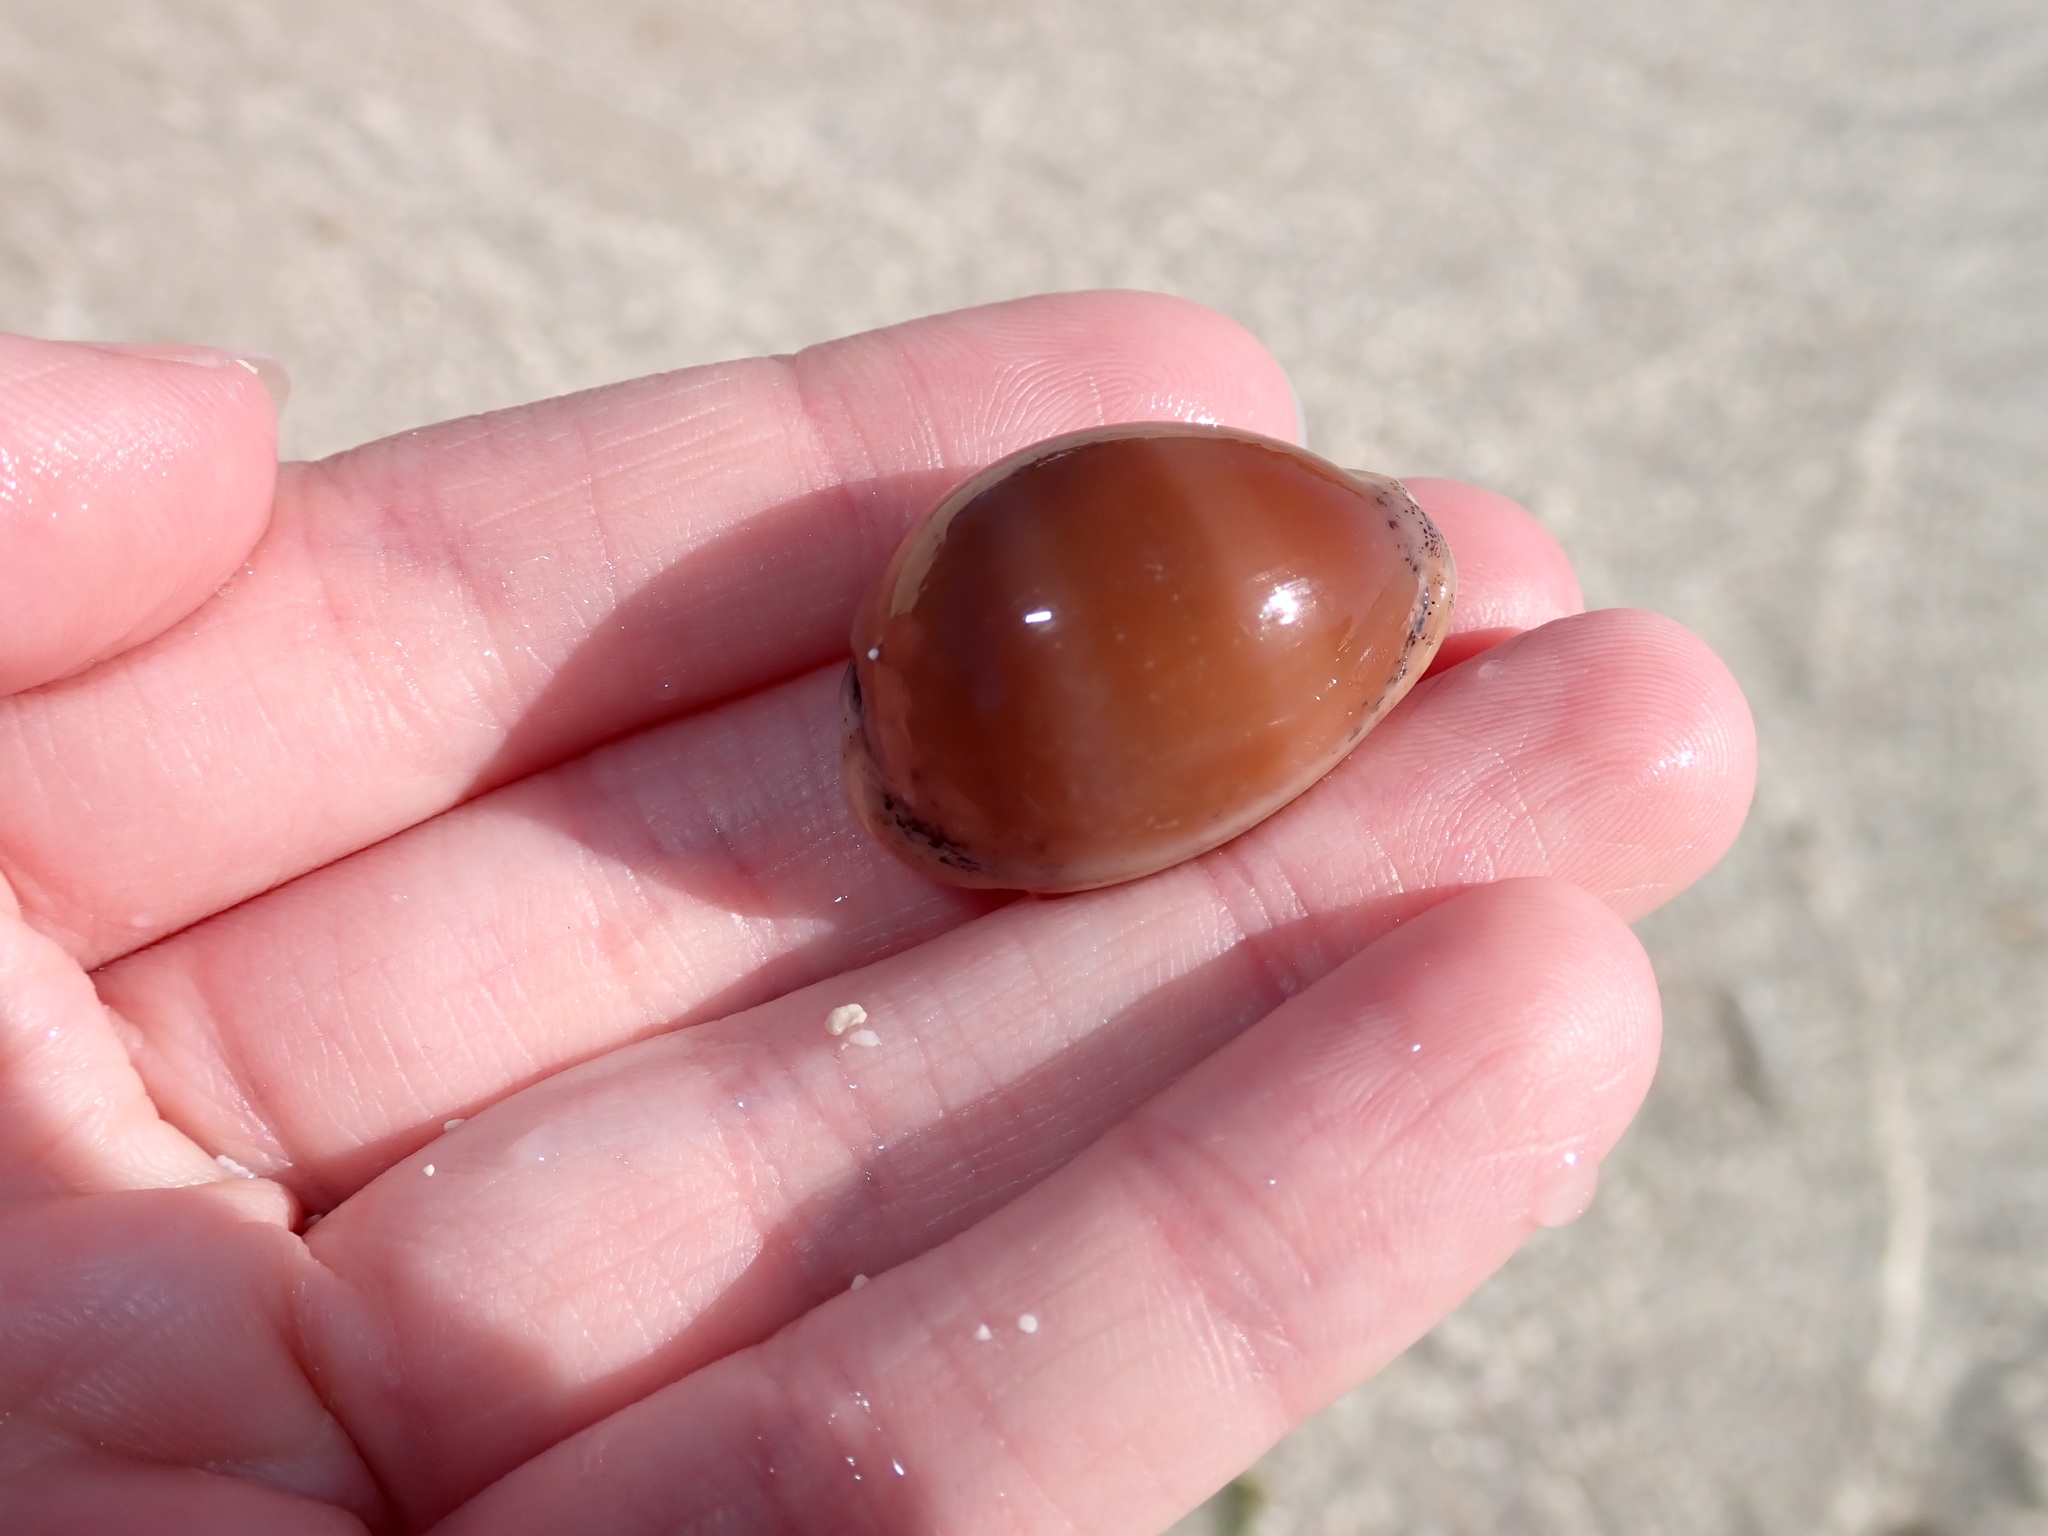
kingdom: Animalia
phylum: Mollusca
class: Gastropoda
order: Littorinimorpha
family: Cypraeidae
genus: Luria
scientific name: Luria cinerea
